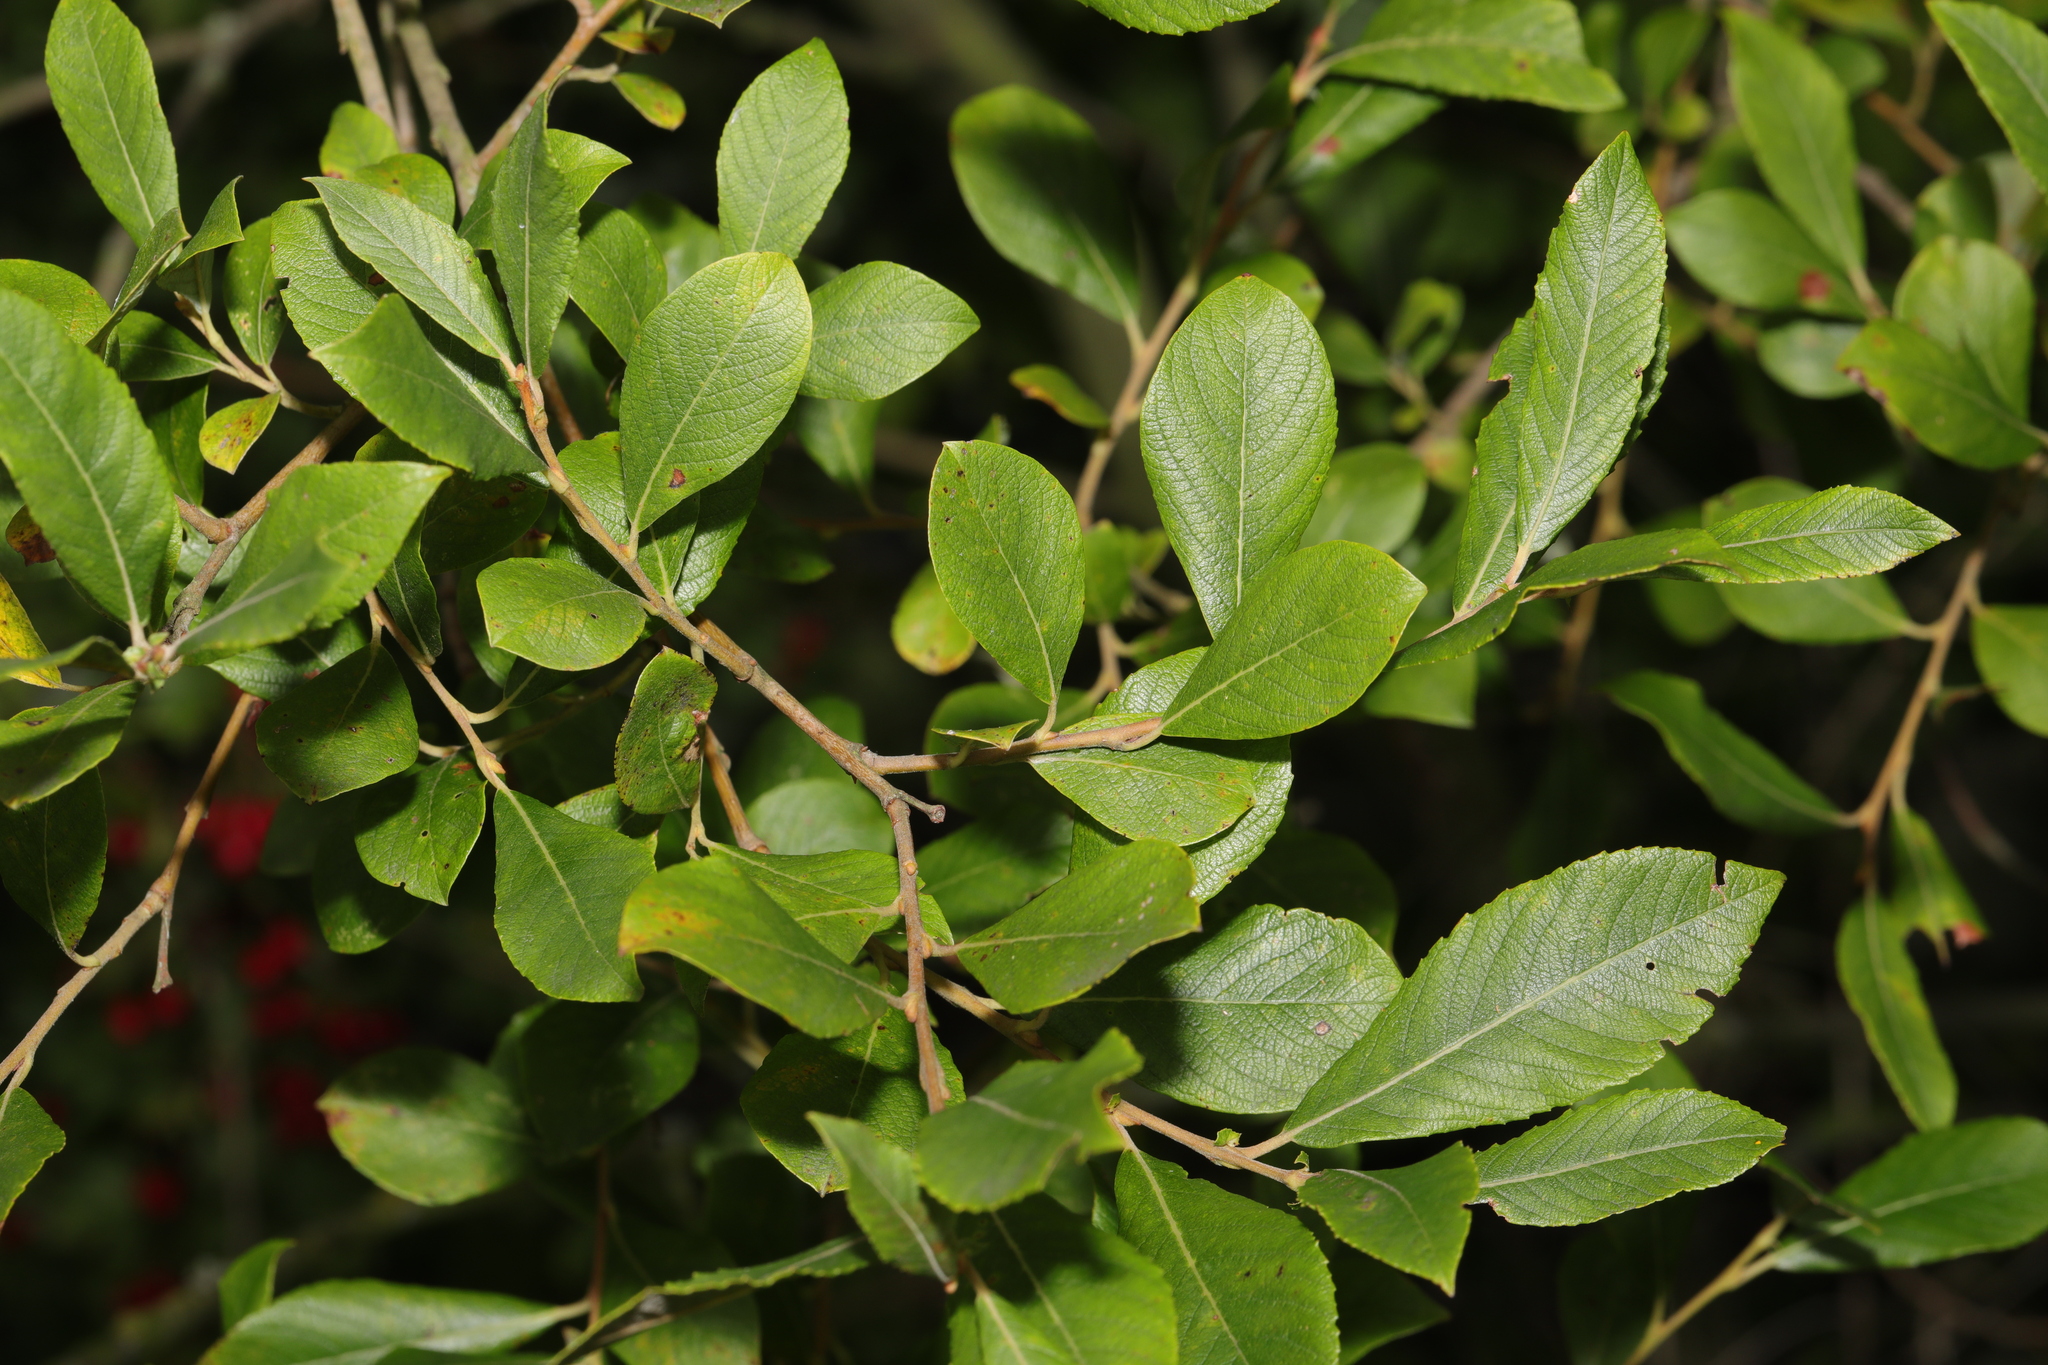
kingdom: Plantae
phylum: Tracheophyta
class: Magnoliopsida
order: Rosales
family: Rosaceae
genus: Prunus
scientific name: Prunus spinosa
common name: Blackthorn
